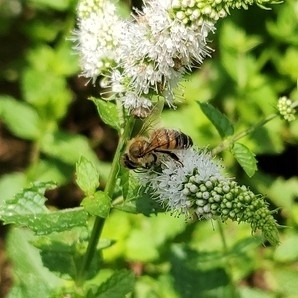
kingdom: Animalia
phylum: Arthropoda
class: Insecta
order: Hymenoptera
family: Apidae
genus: Apis
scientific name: Apis mellifera
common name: Honey bee
